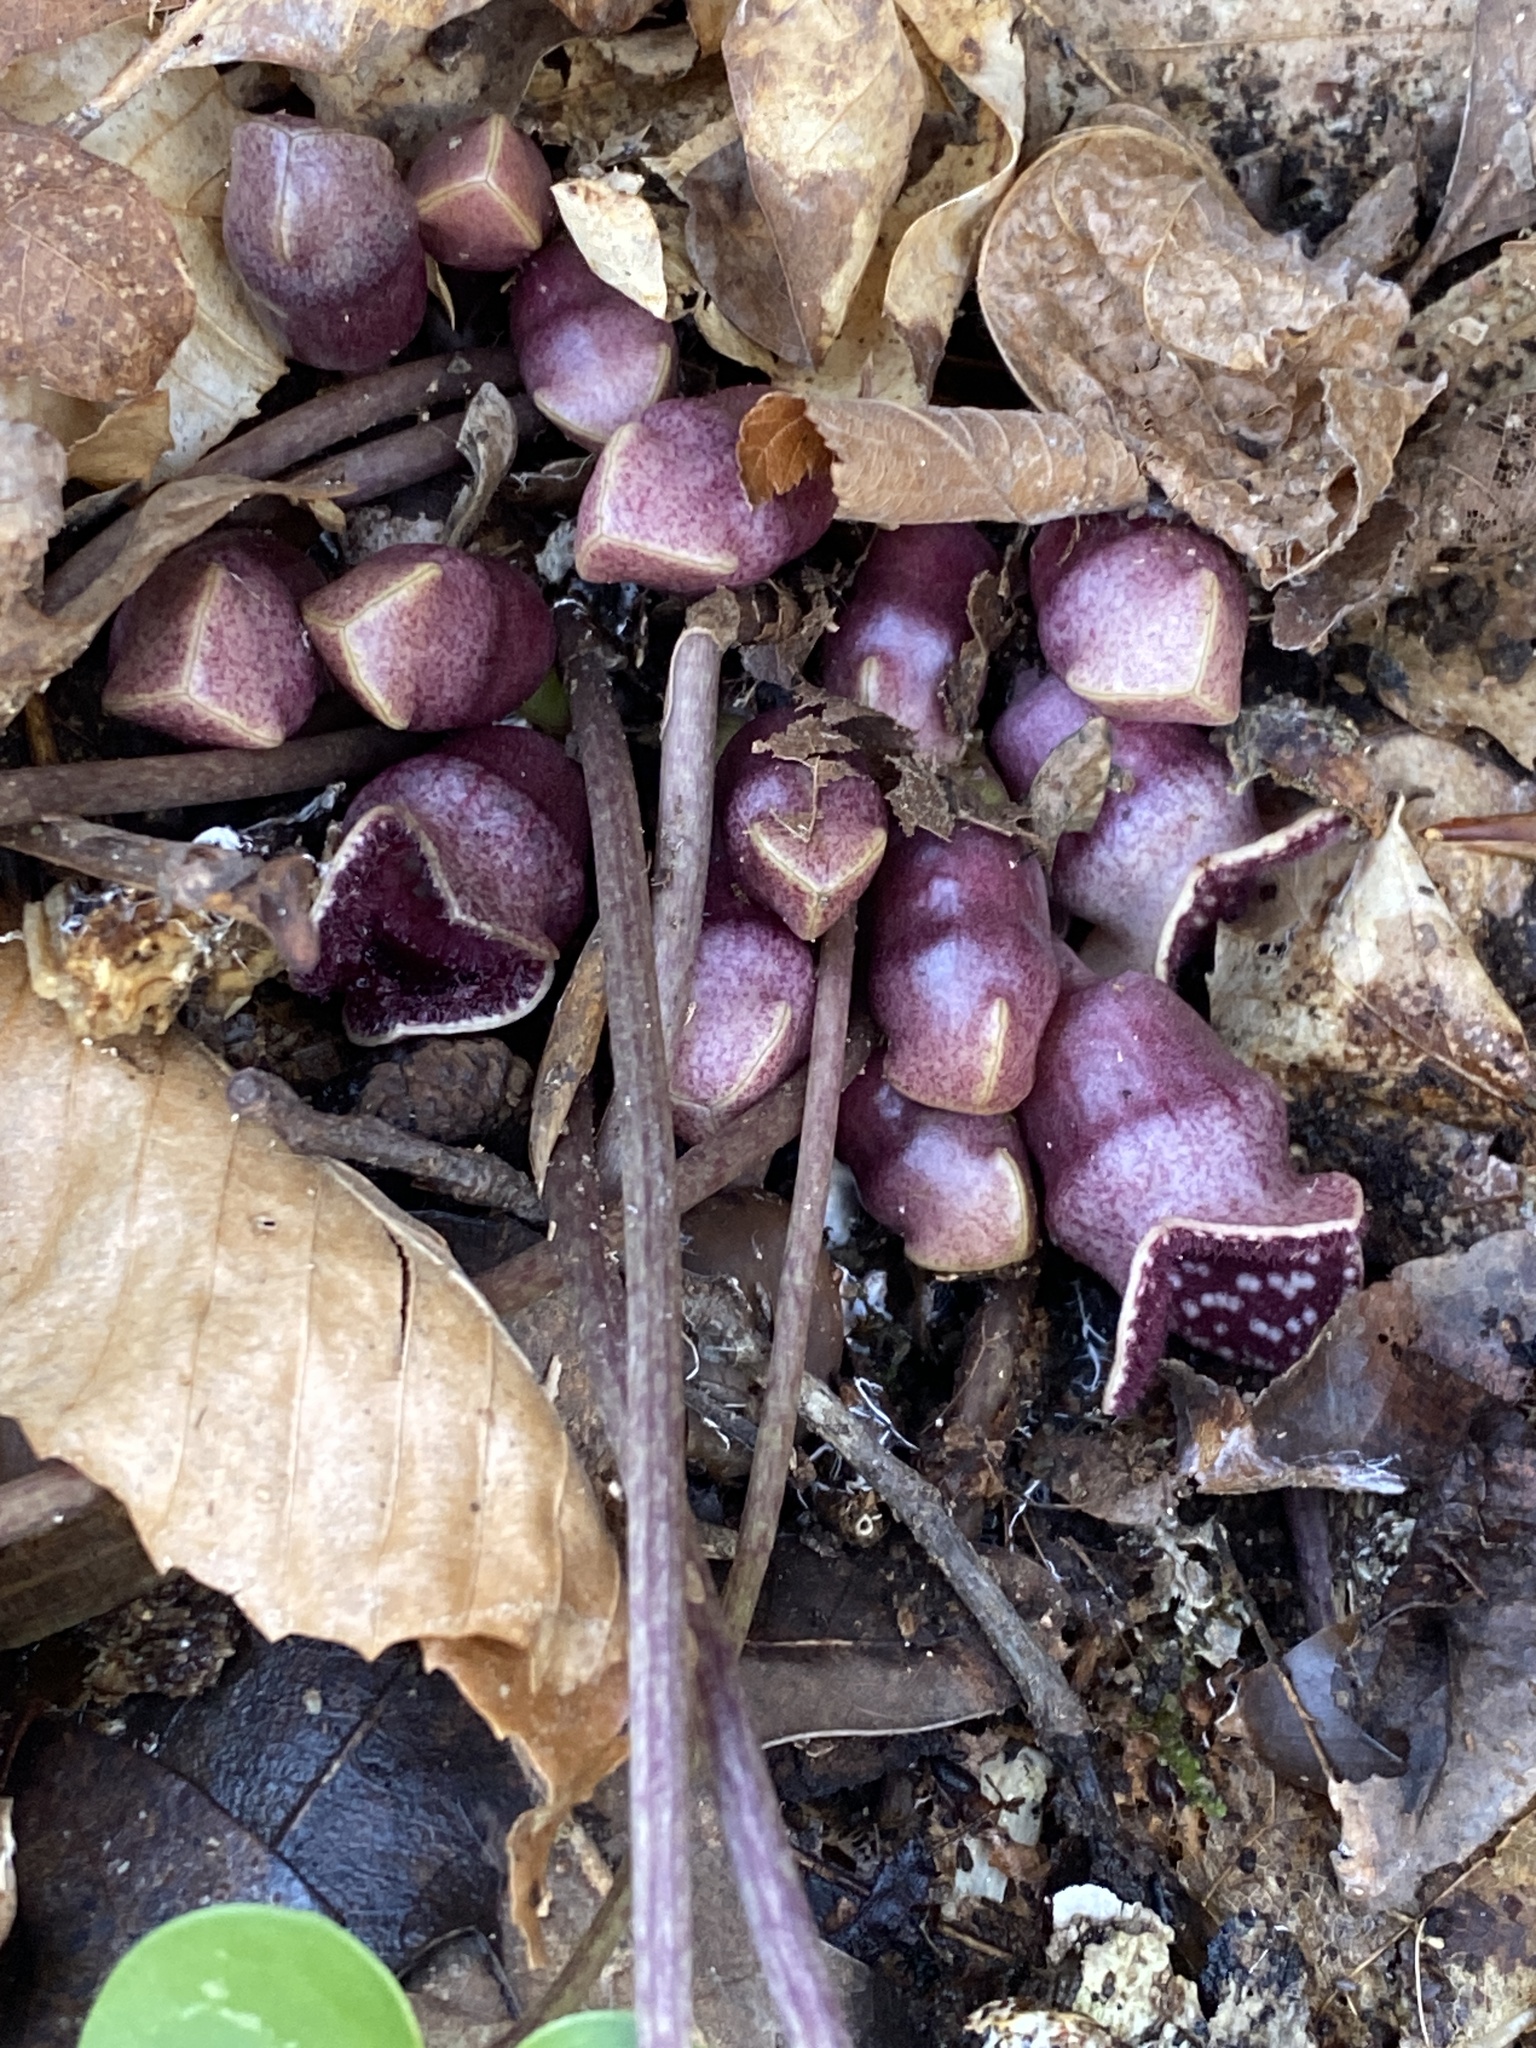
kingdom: Plantae
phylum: Tracheophyta
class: Magnoliopsida
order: Piperales
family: Aristolochiaceae
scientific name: Aristolochiaceae
